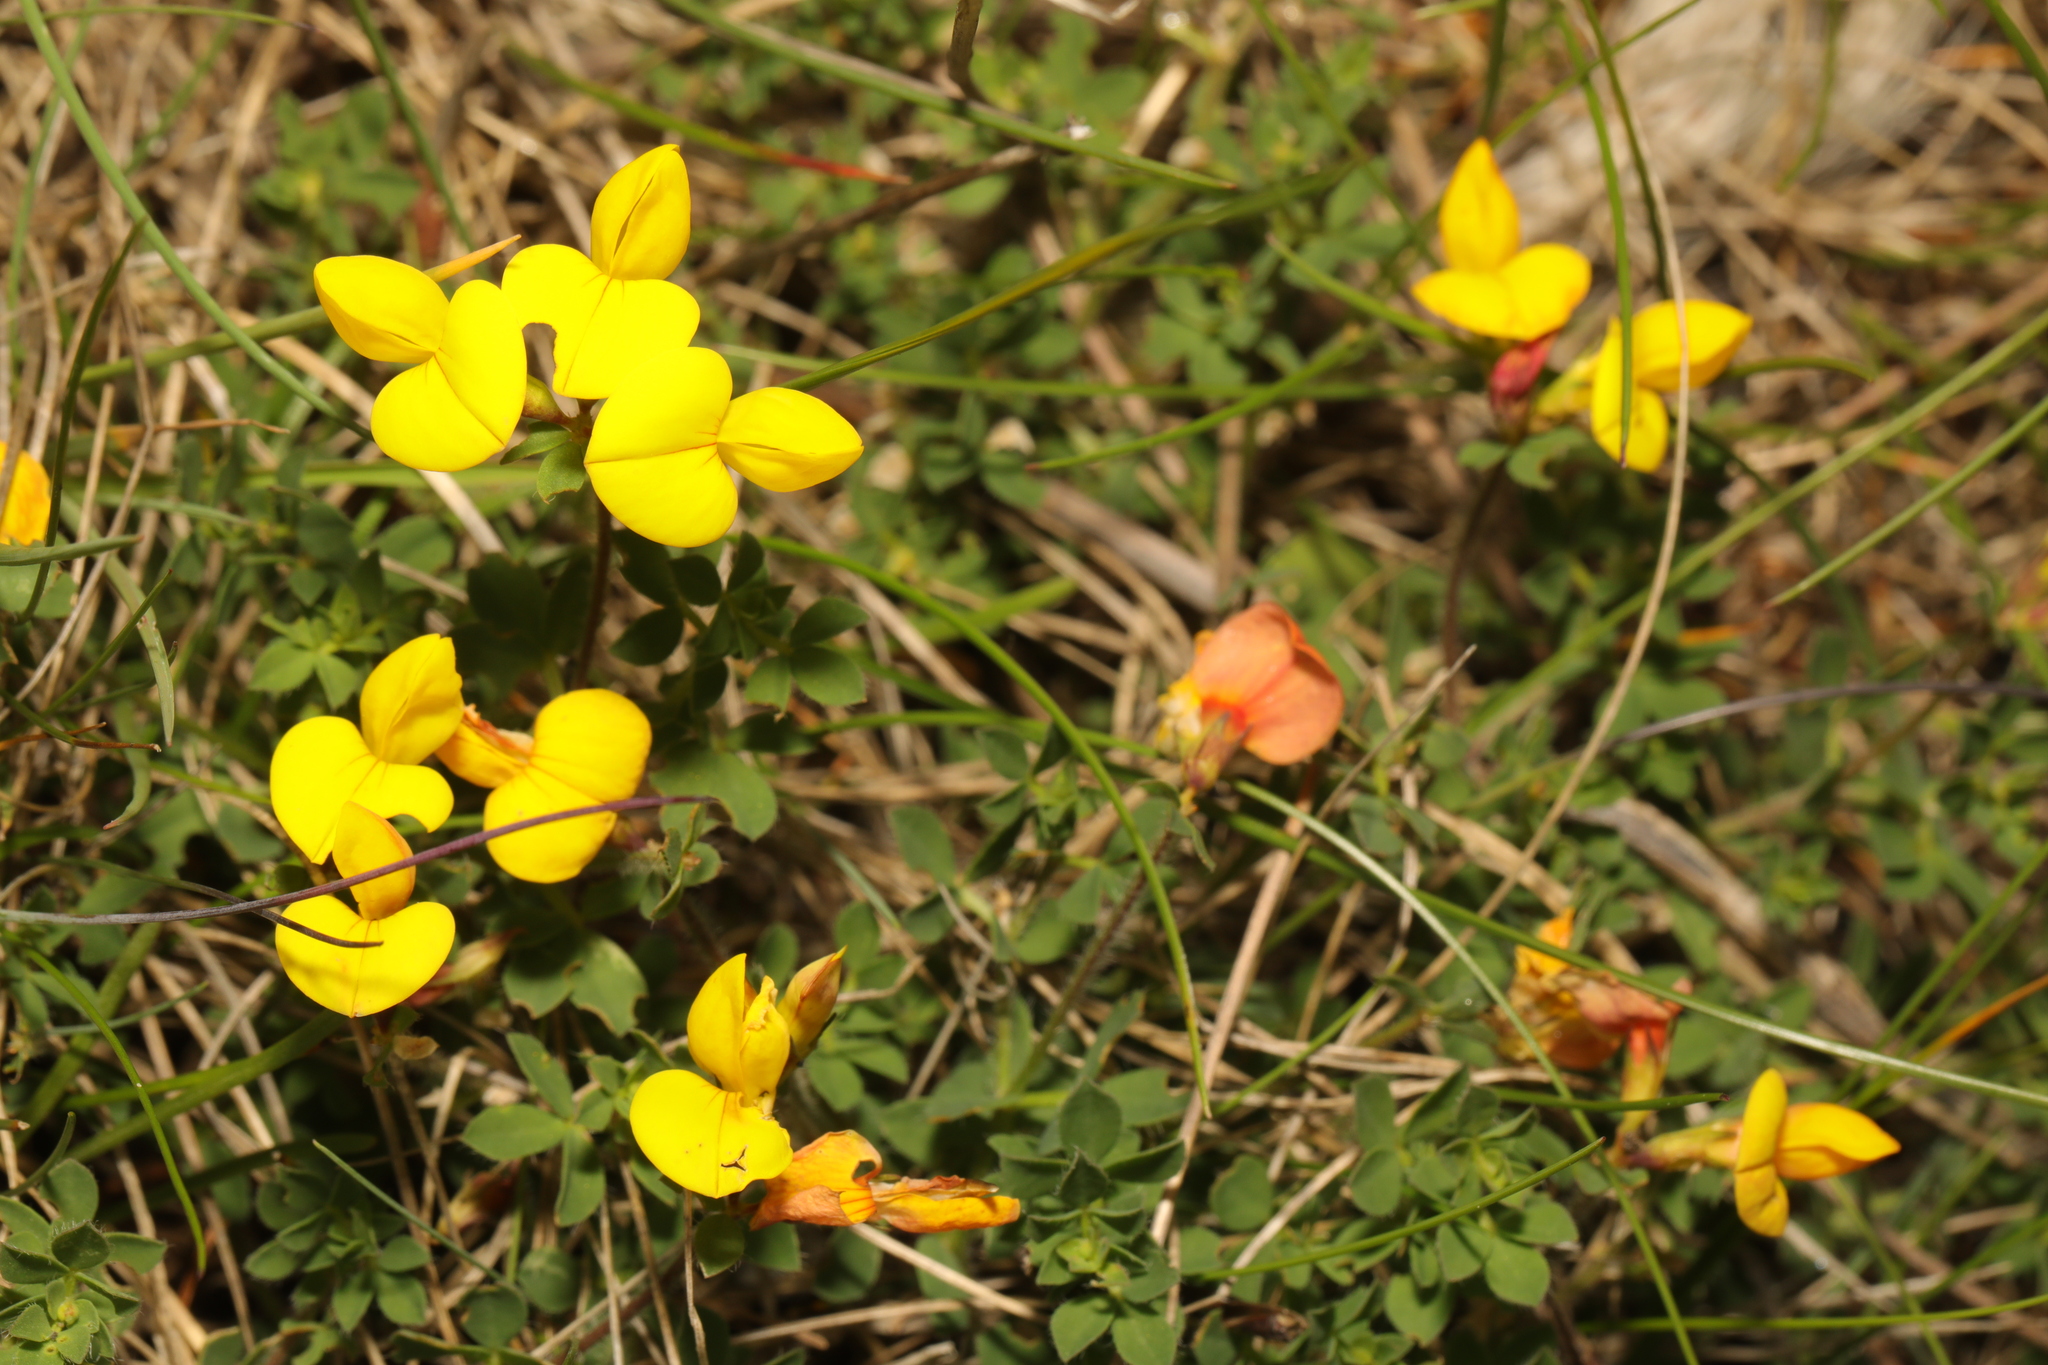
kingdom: Plantae
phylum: Tracheophyta
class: Magnoliopsida
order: Fabales
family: Fabaceae
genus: Lotus
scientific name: Lotus corniculatus
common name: Common bird's-foot-trefoil
